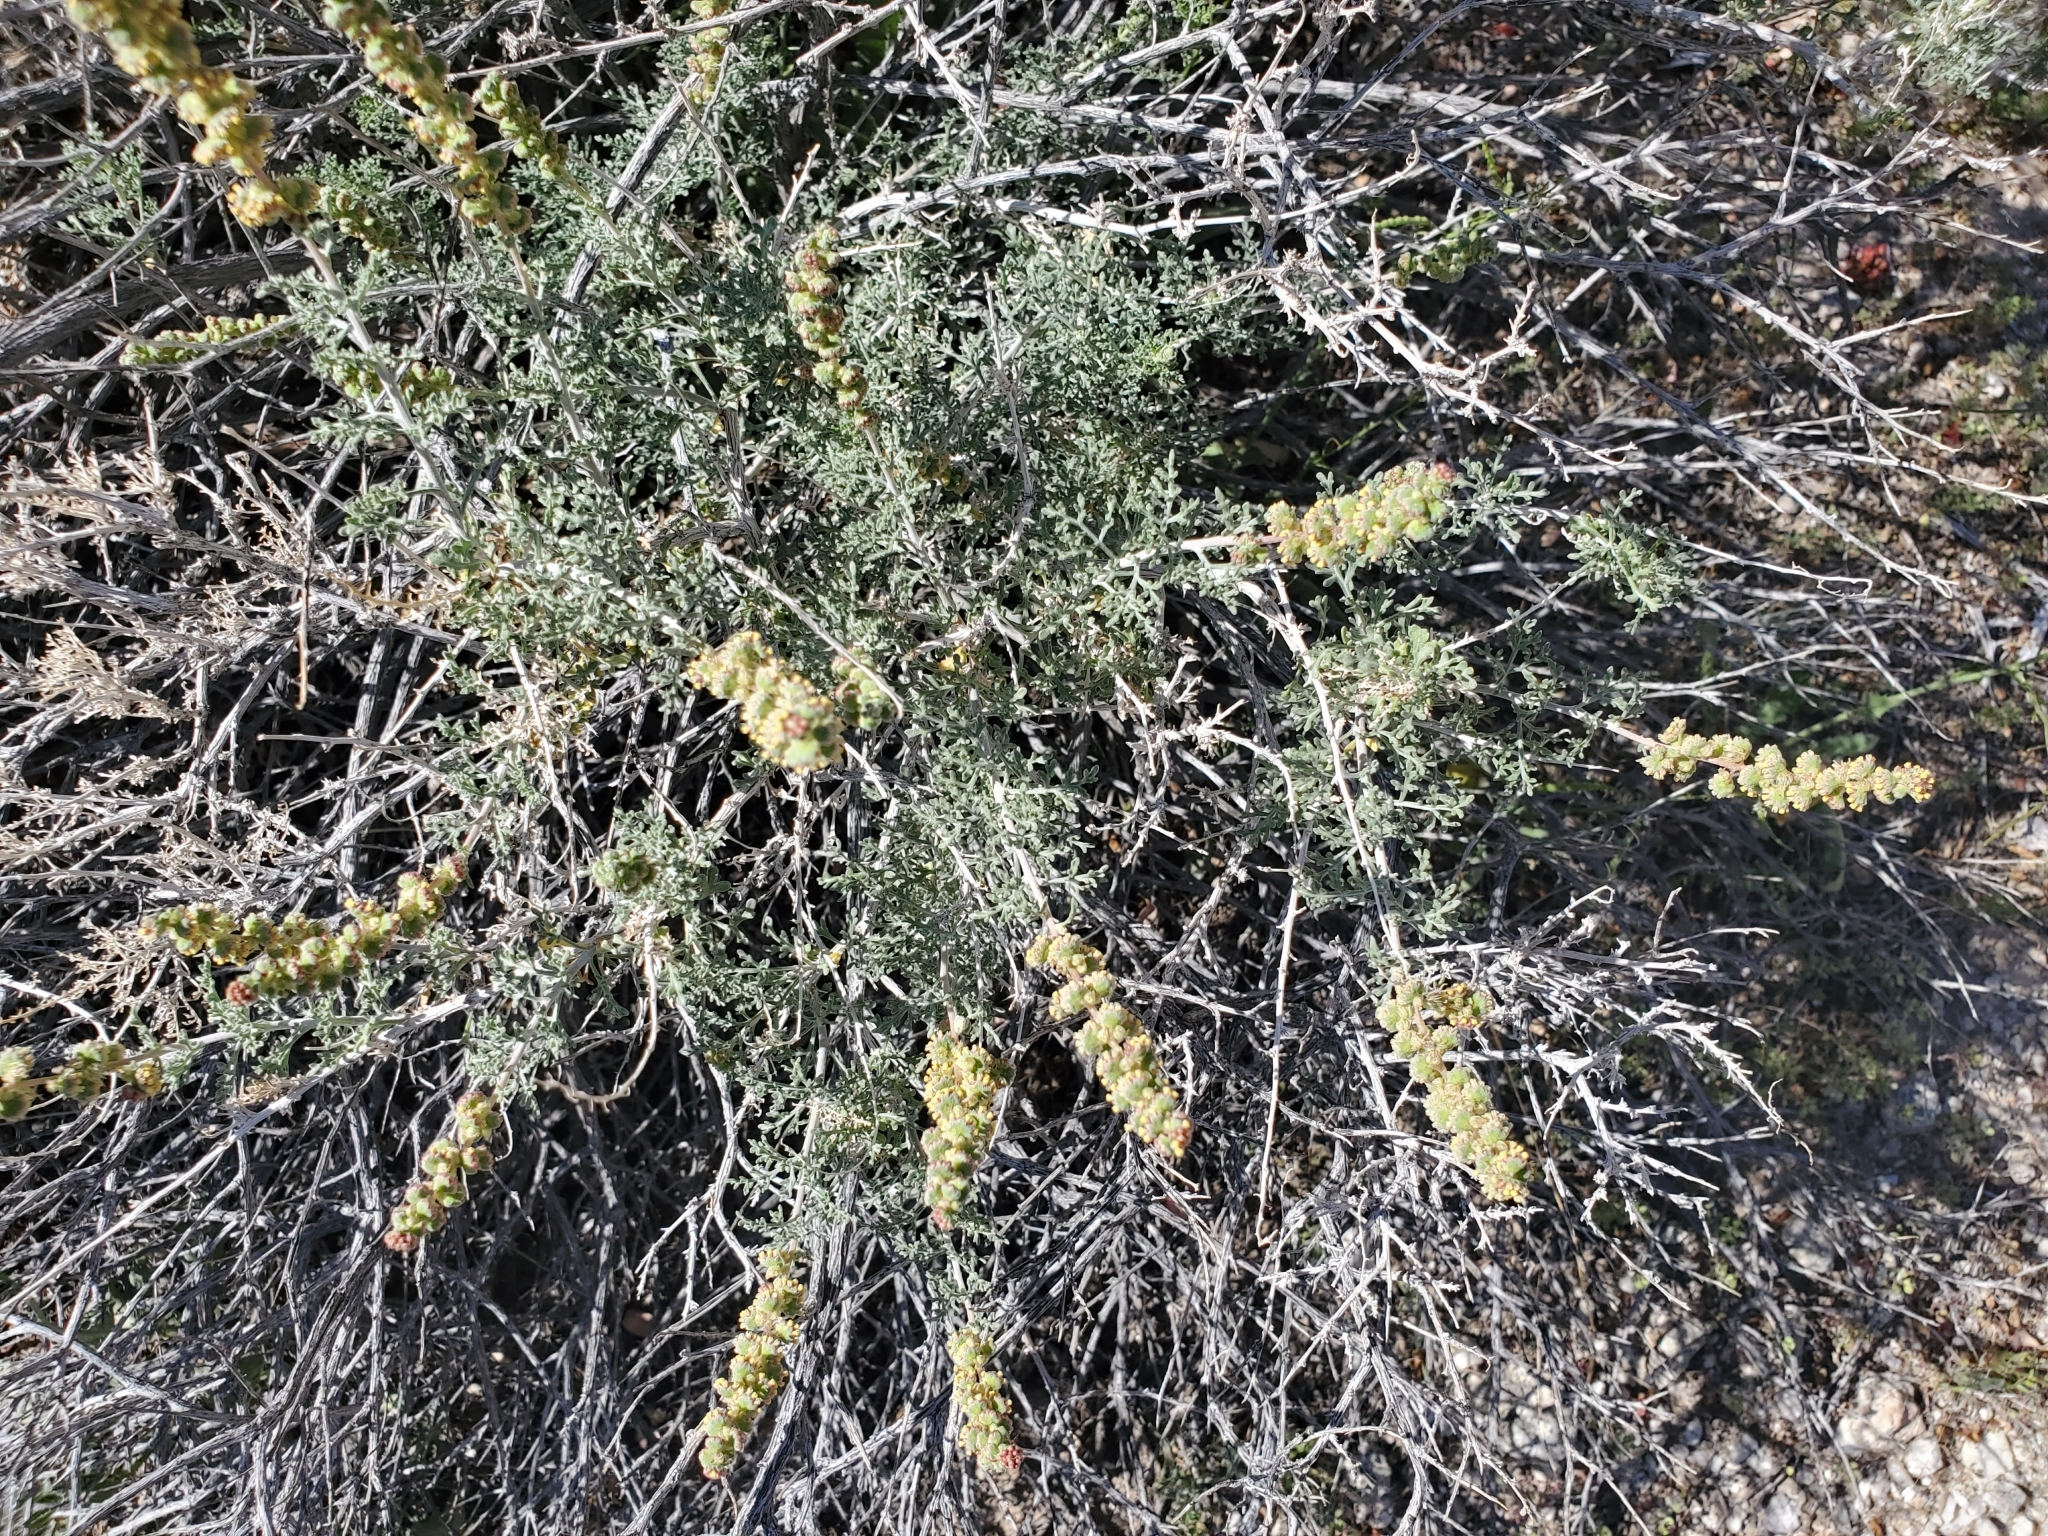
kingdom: Plantae
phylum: Tracheophyta
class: Magnoliopsida
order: Asterales
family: Asteraceae
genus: Ambrosia
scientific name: Ambrosia dumosa
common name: Bur-sage
